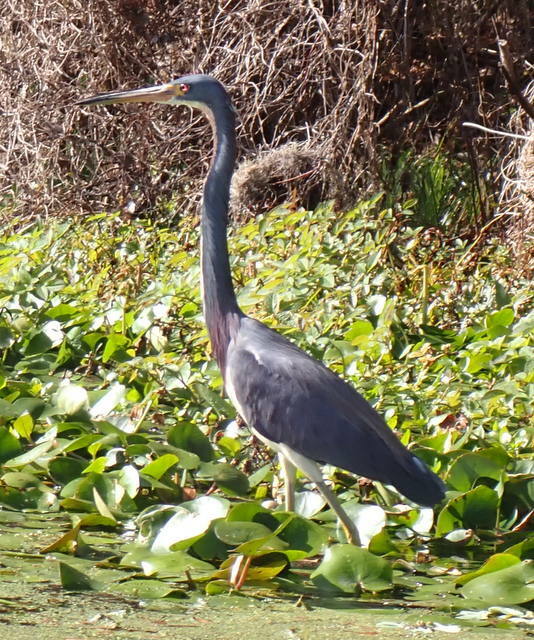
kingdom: Animalia
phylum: Chordata
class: Aves
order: Pelecaniformes
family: Ardeidae
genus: Egretta
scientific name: Egretta tricolor
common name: Tricolored heron
